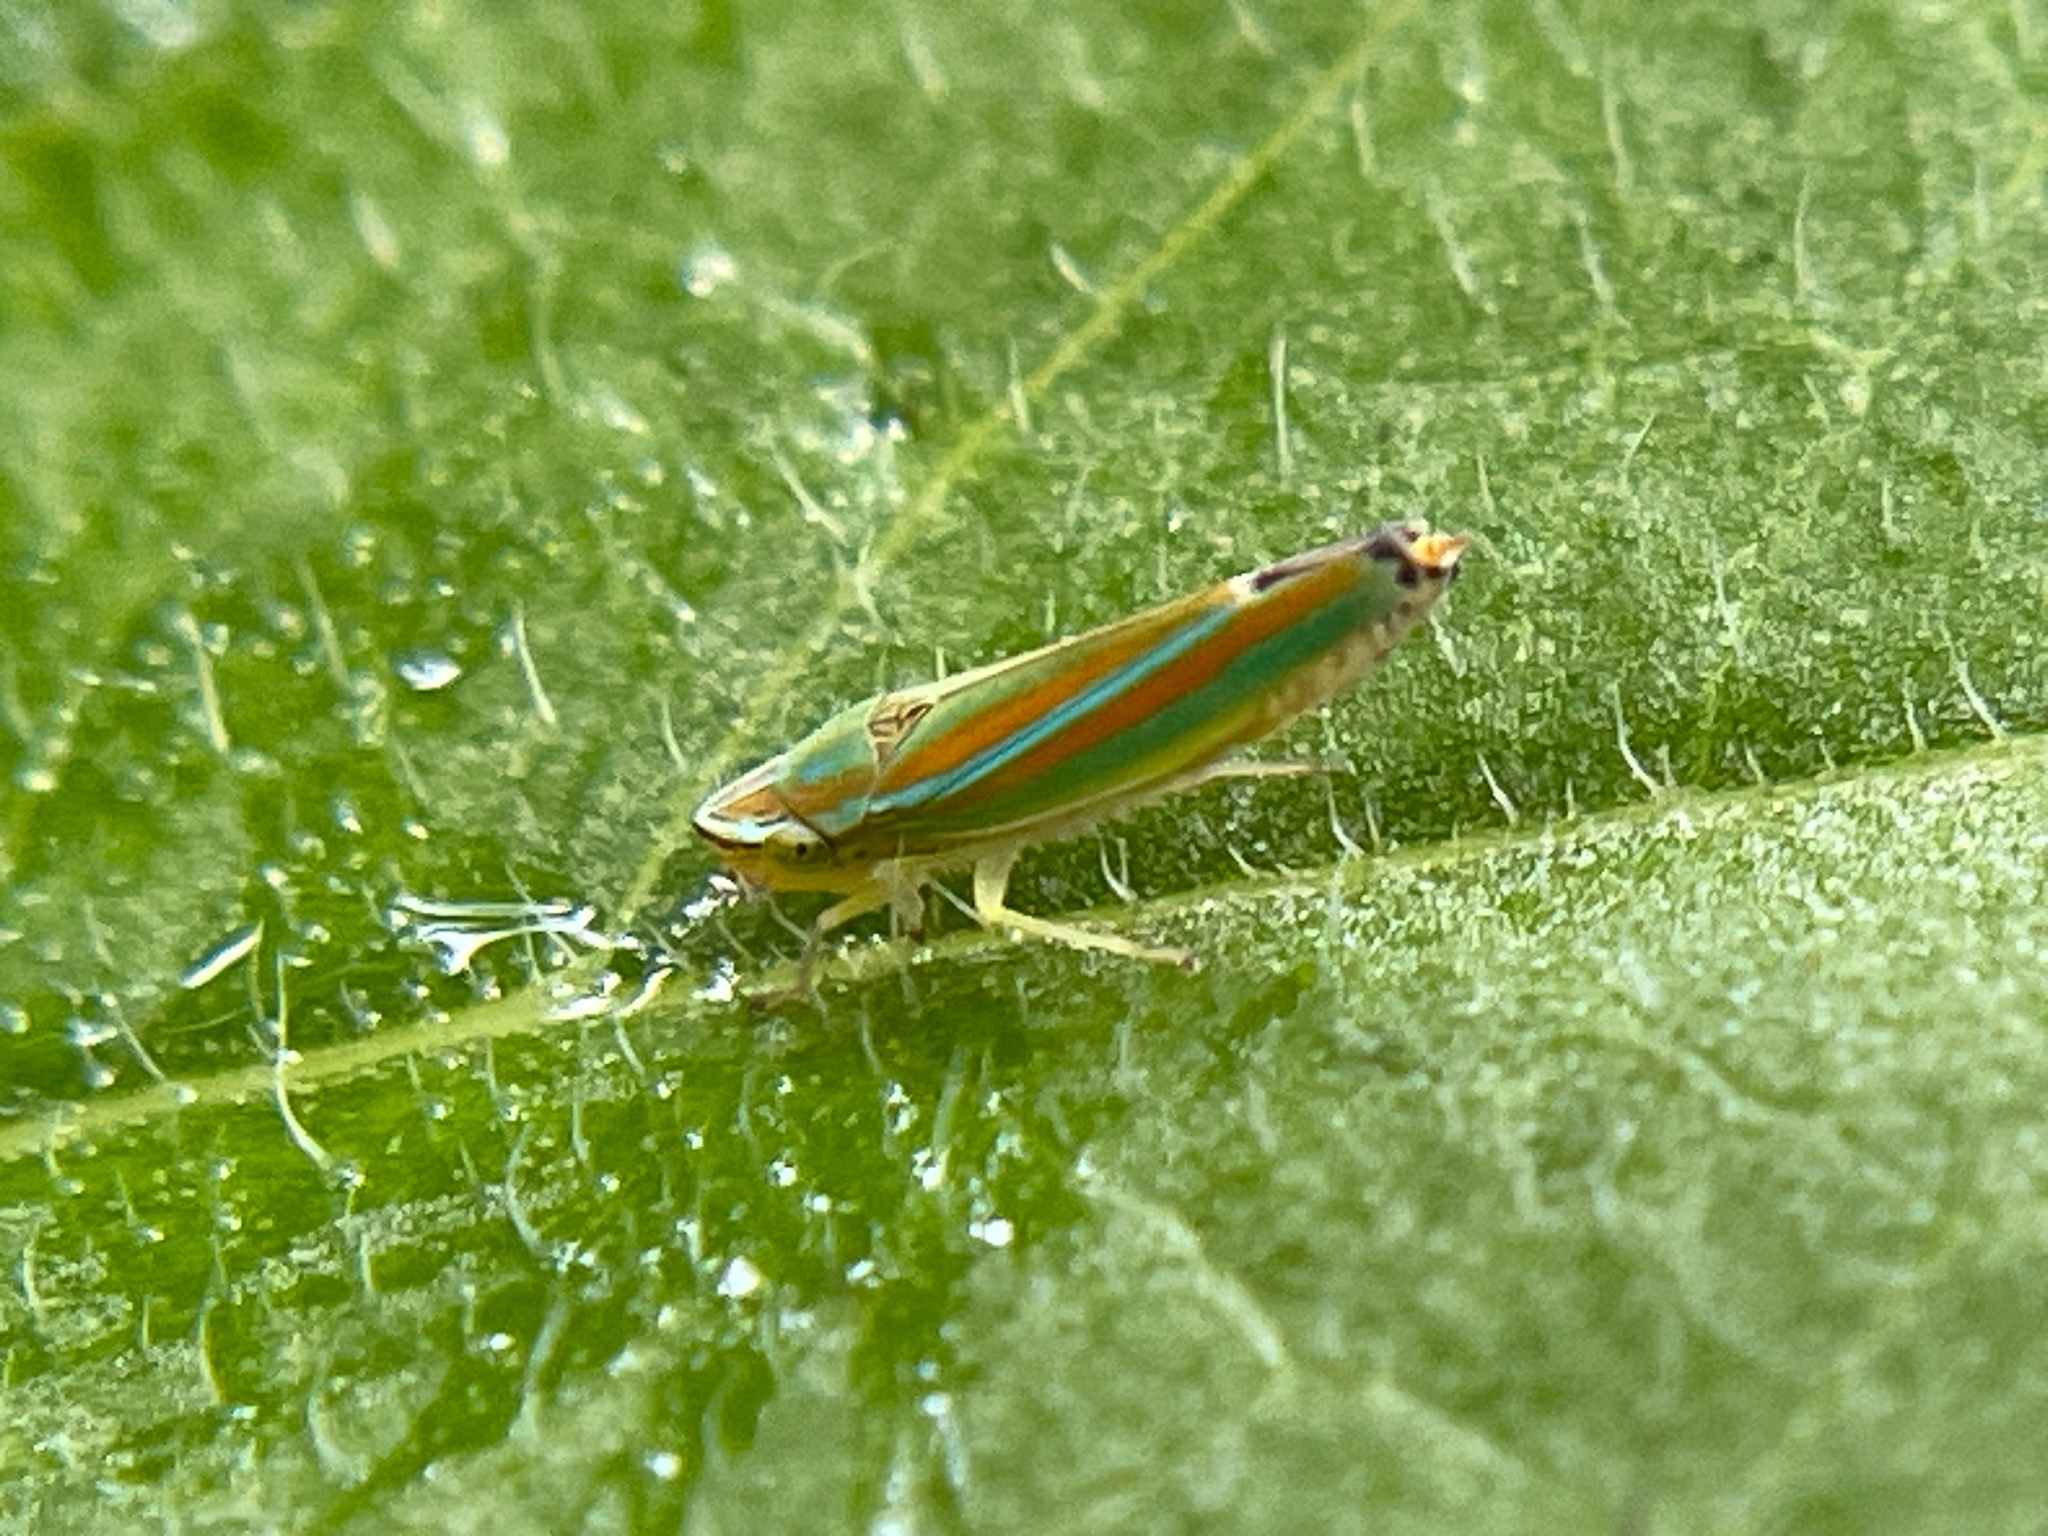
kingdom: Animalia
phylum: Arthropoda
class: Insecta
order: Hemiptera
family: Cicadellidae
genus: Graphocephala
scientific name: Graphocephala versuta
